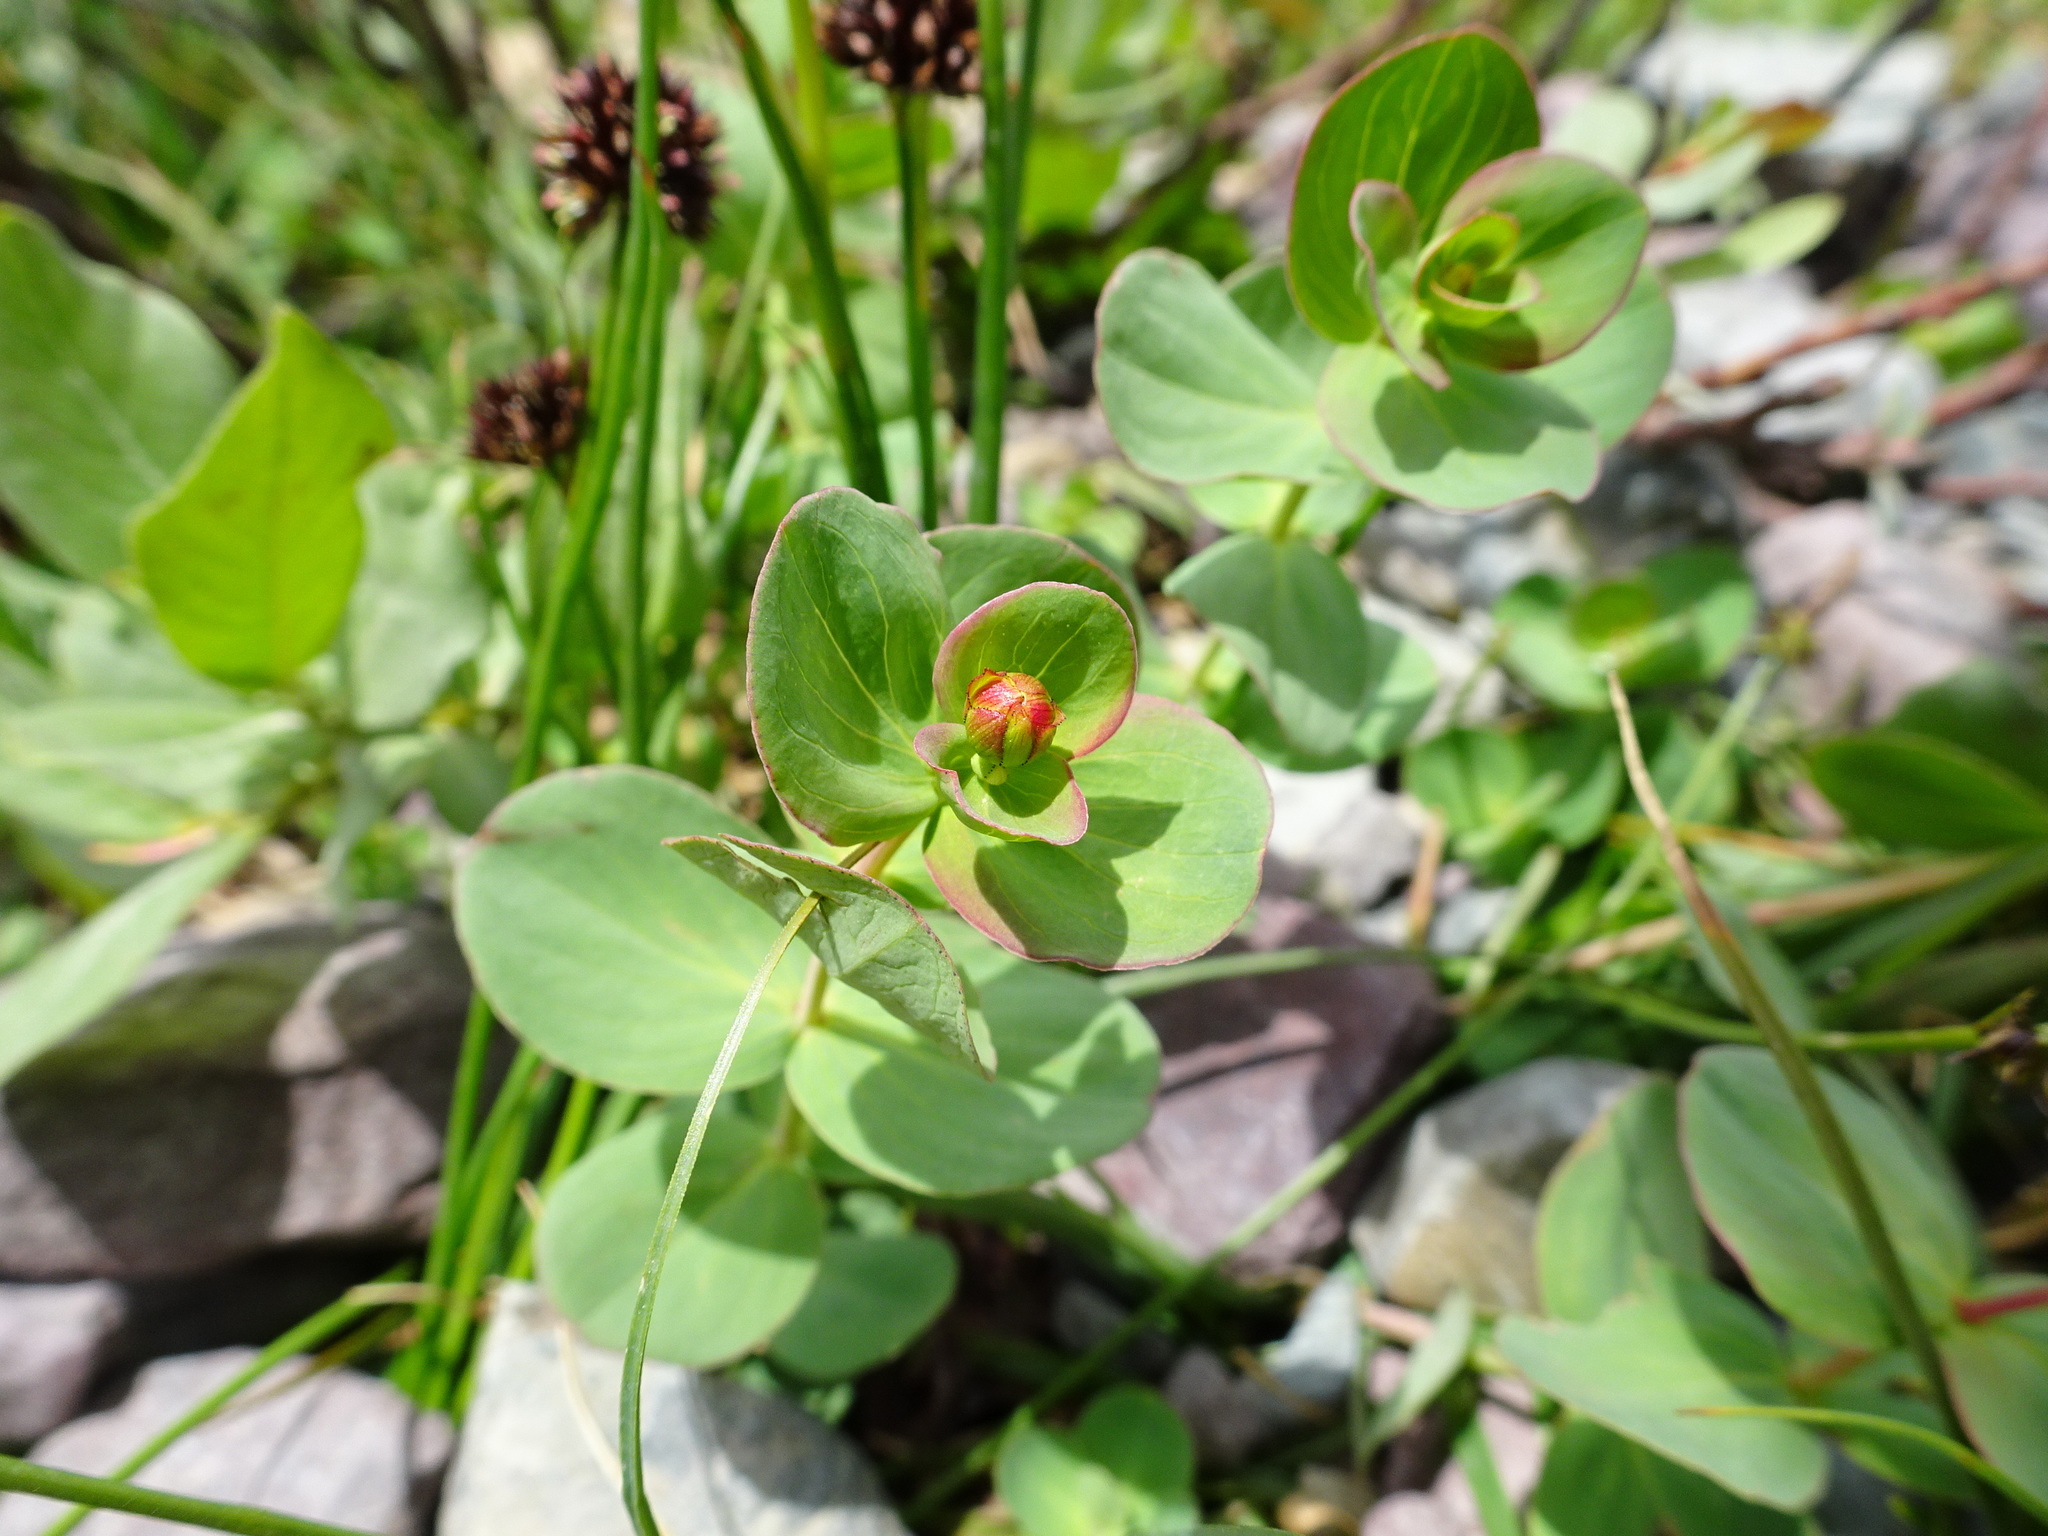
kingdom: Plantae
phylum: Tracheophyta
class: Magnoliopsida
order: Malpighiales
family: Hypericaceae
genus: Hypericum
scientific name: Hypericum scouleri
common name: Scouler's st. john's-wort
